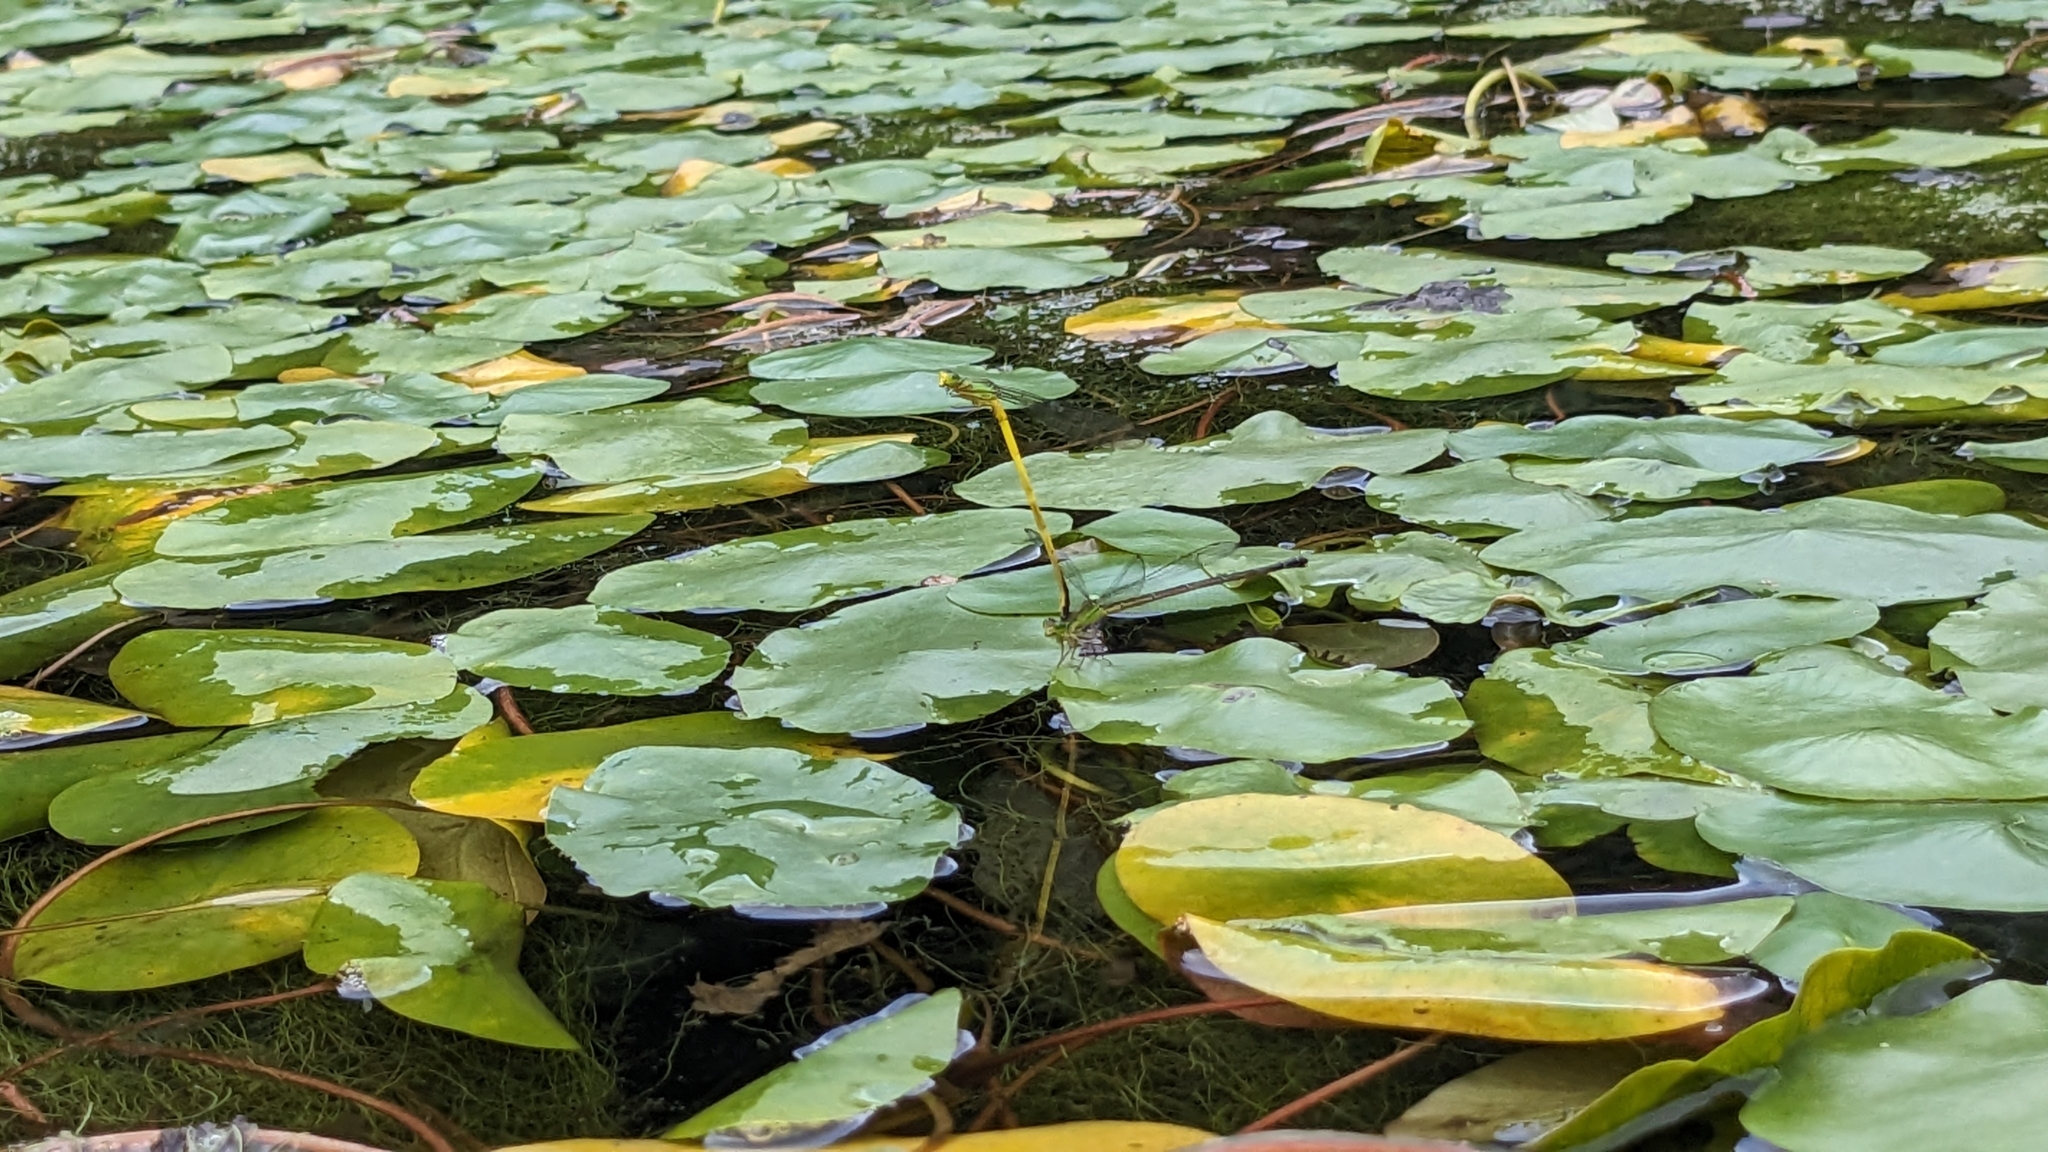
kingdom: Animalia
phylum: Arthropoda
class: Insecta
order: Odonata
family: Coenagrionidae
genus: Ceriagrion
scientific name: Ceriagrion fallax
